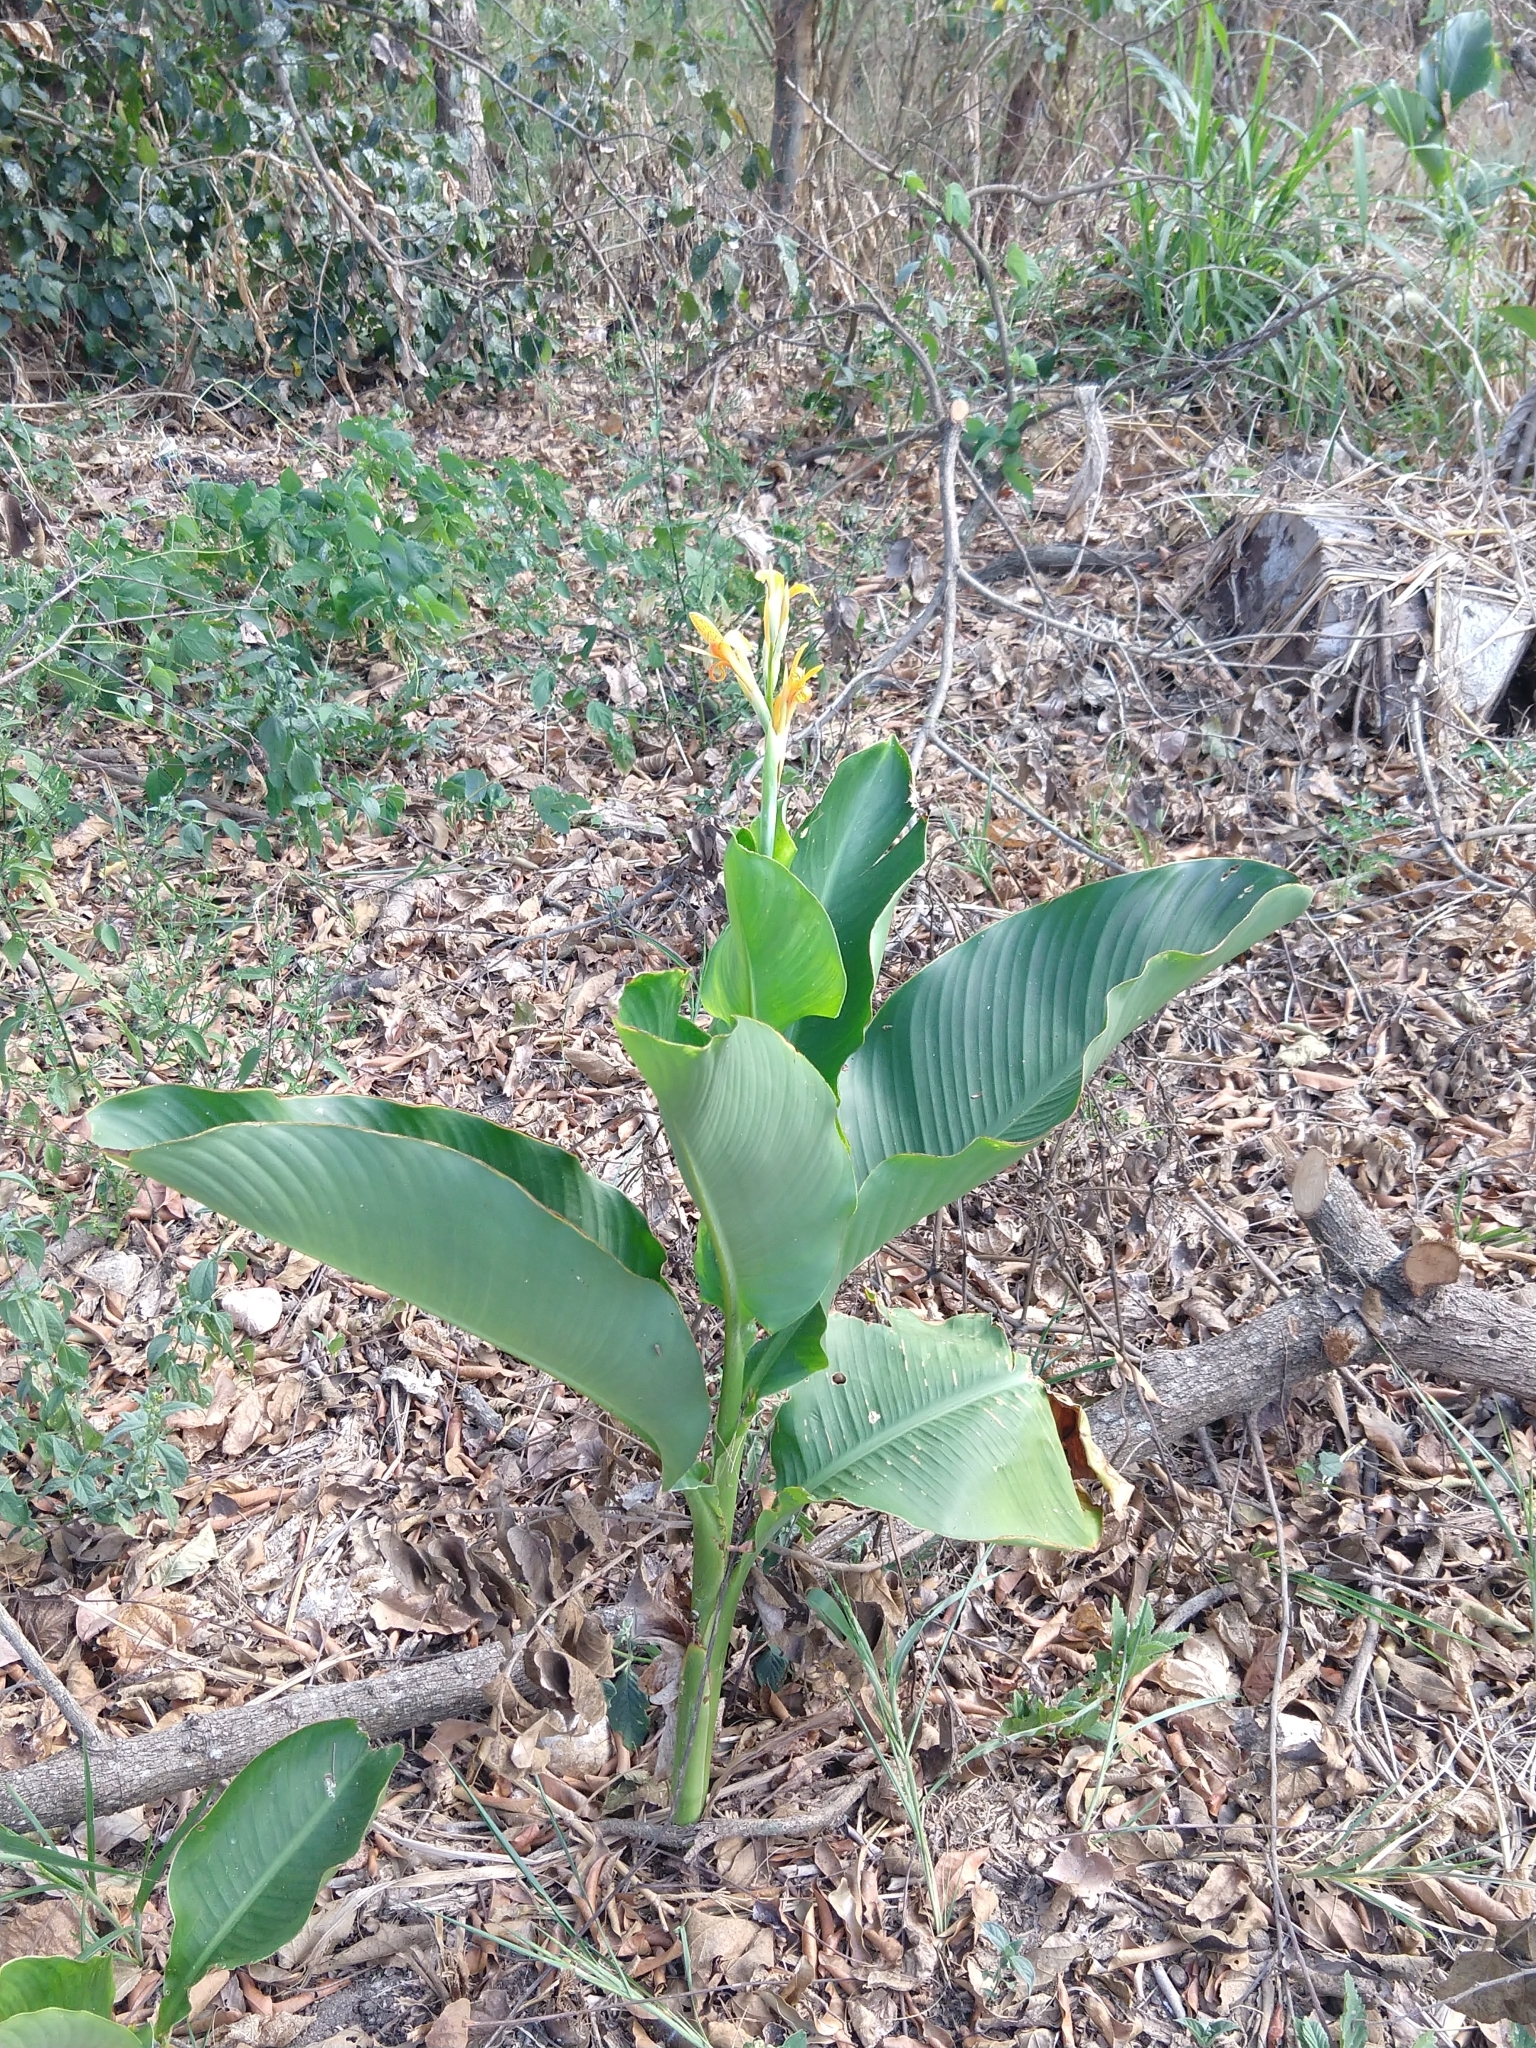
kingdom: Plantae
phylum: Tracheophyta
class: Liliopsida
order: Zingiberales
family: Cannaceae
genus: Canna
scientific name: Canna indica
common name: Indian shot
